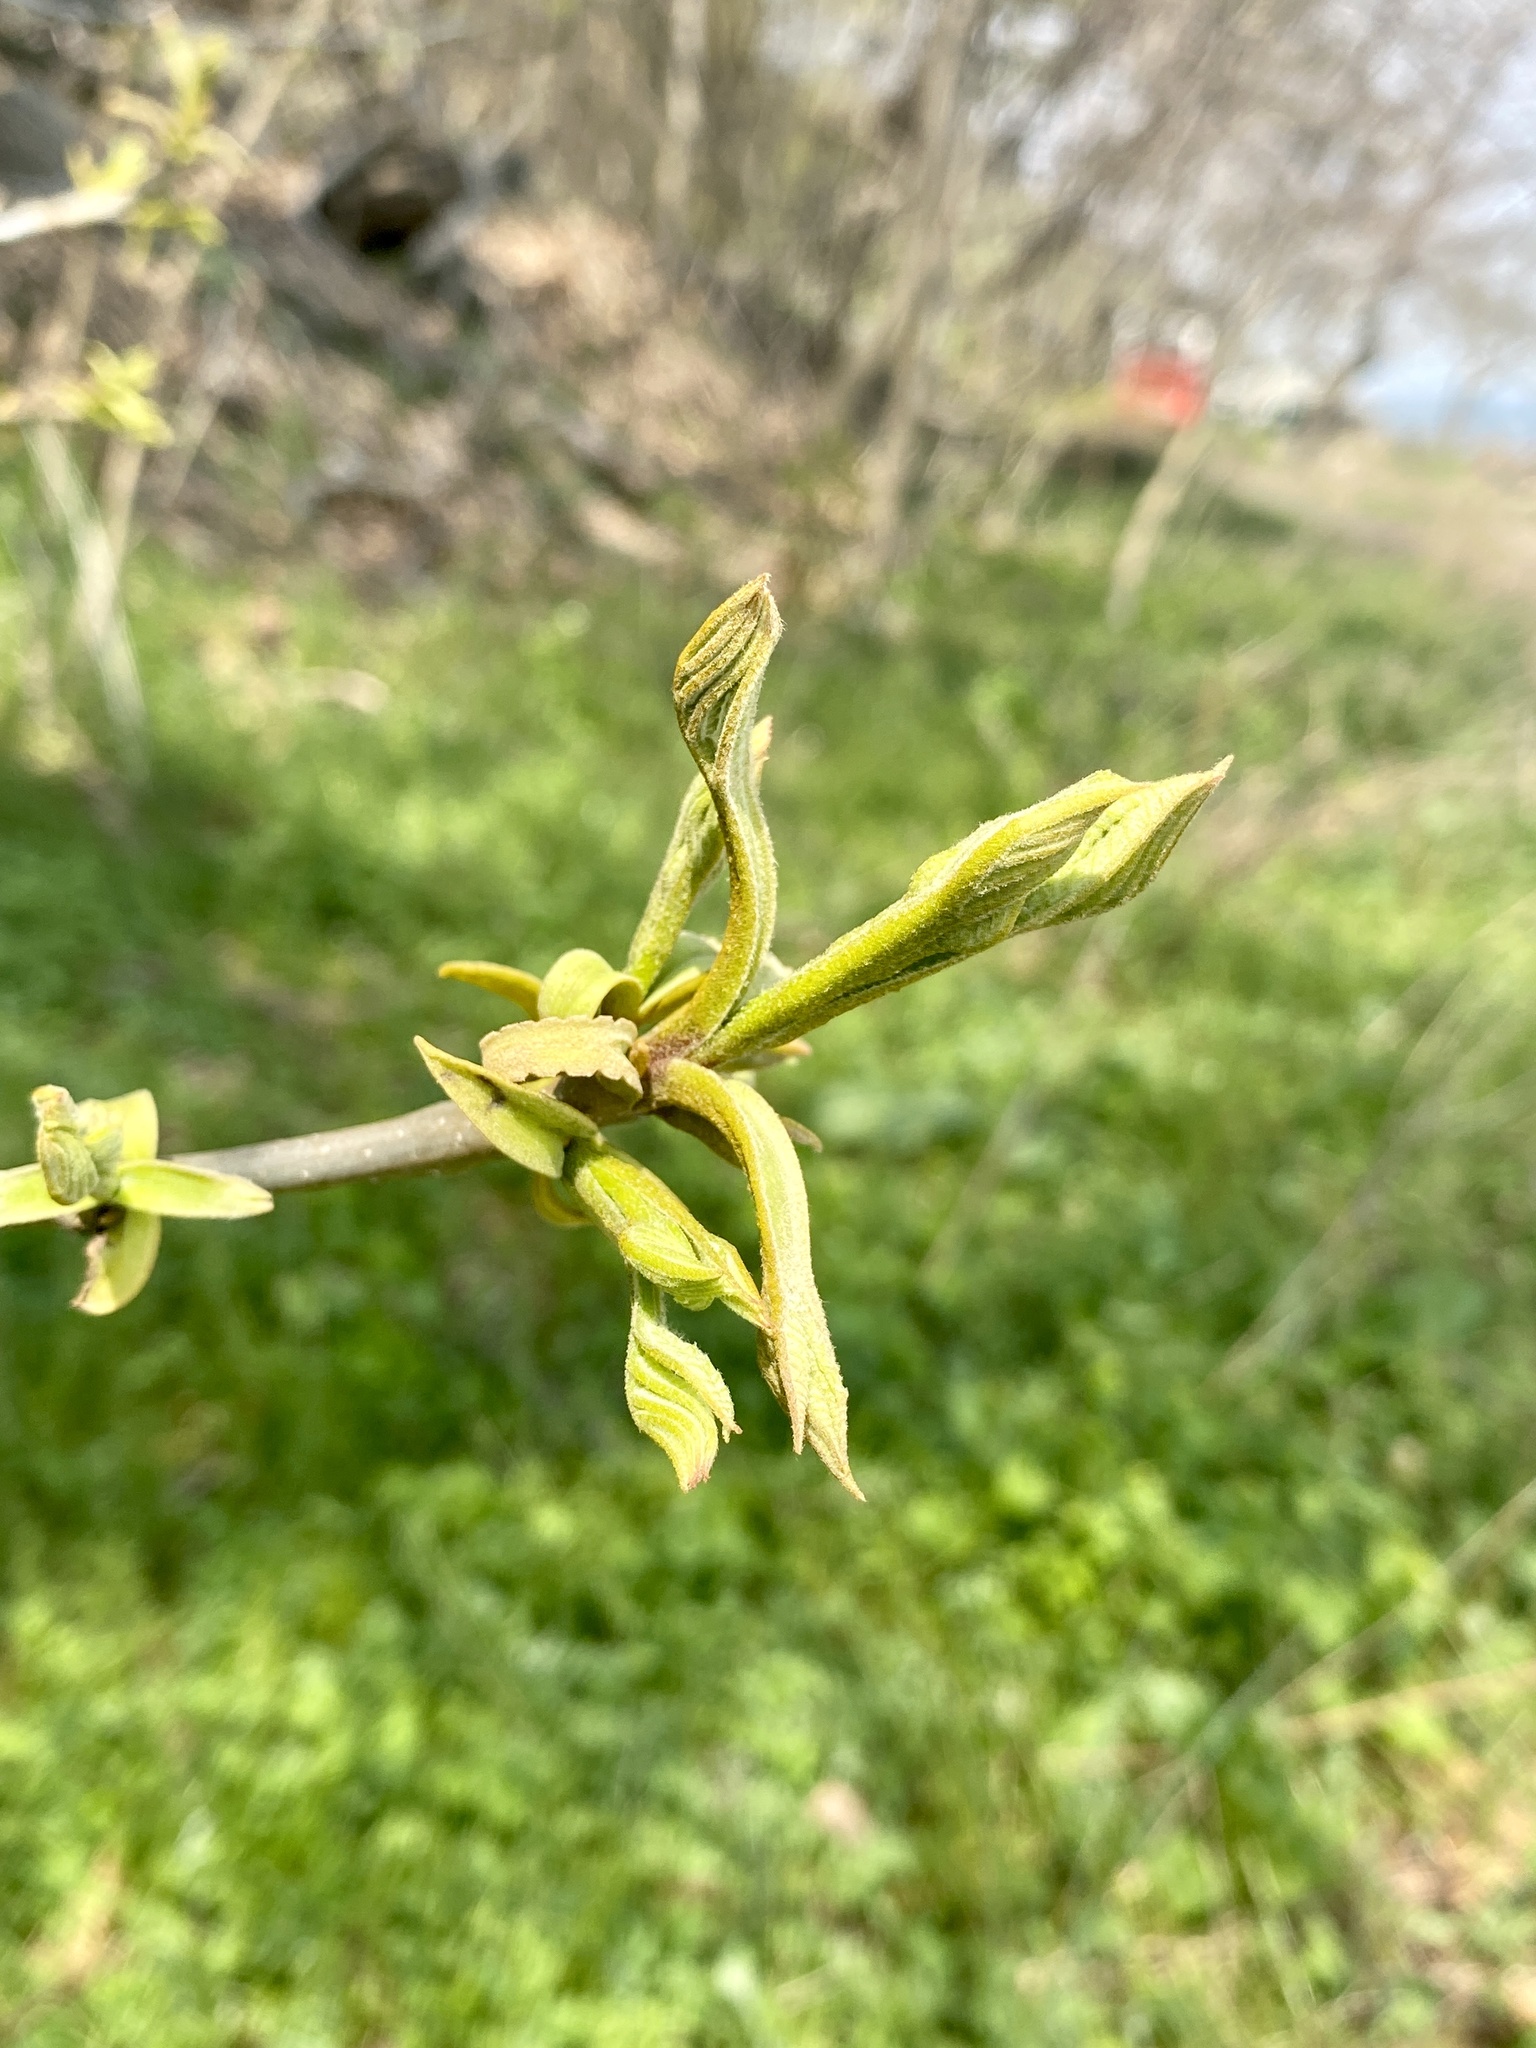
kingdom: Plantae
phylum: Tracheophyta
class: Magnoliopsida
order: Fagales
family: Juglandaceae
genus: Carya
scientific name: Carya cordiformis
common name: Bitternut hickory
